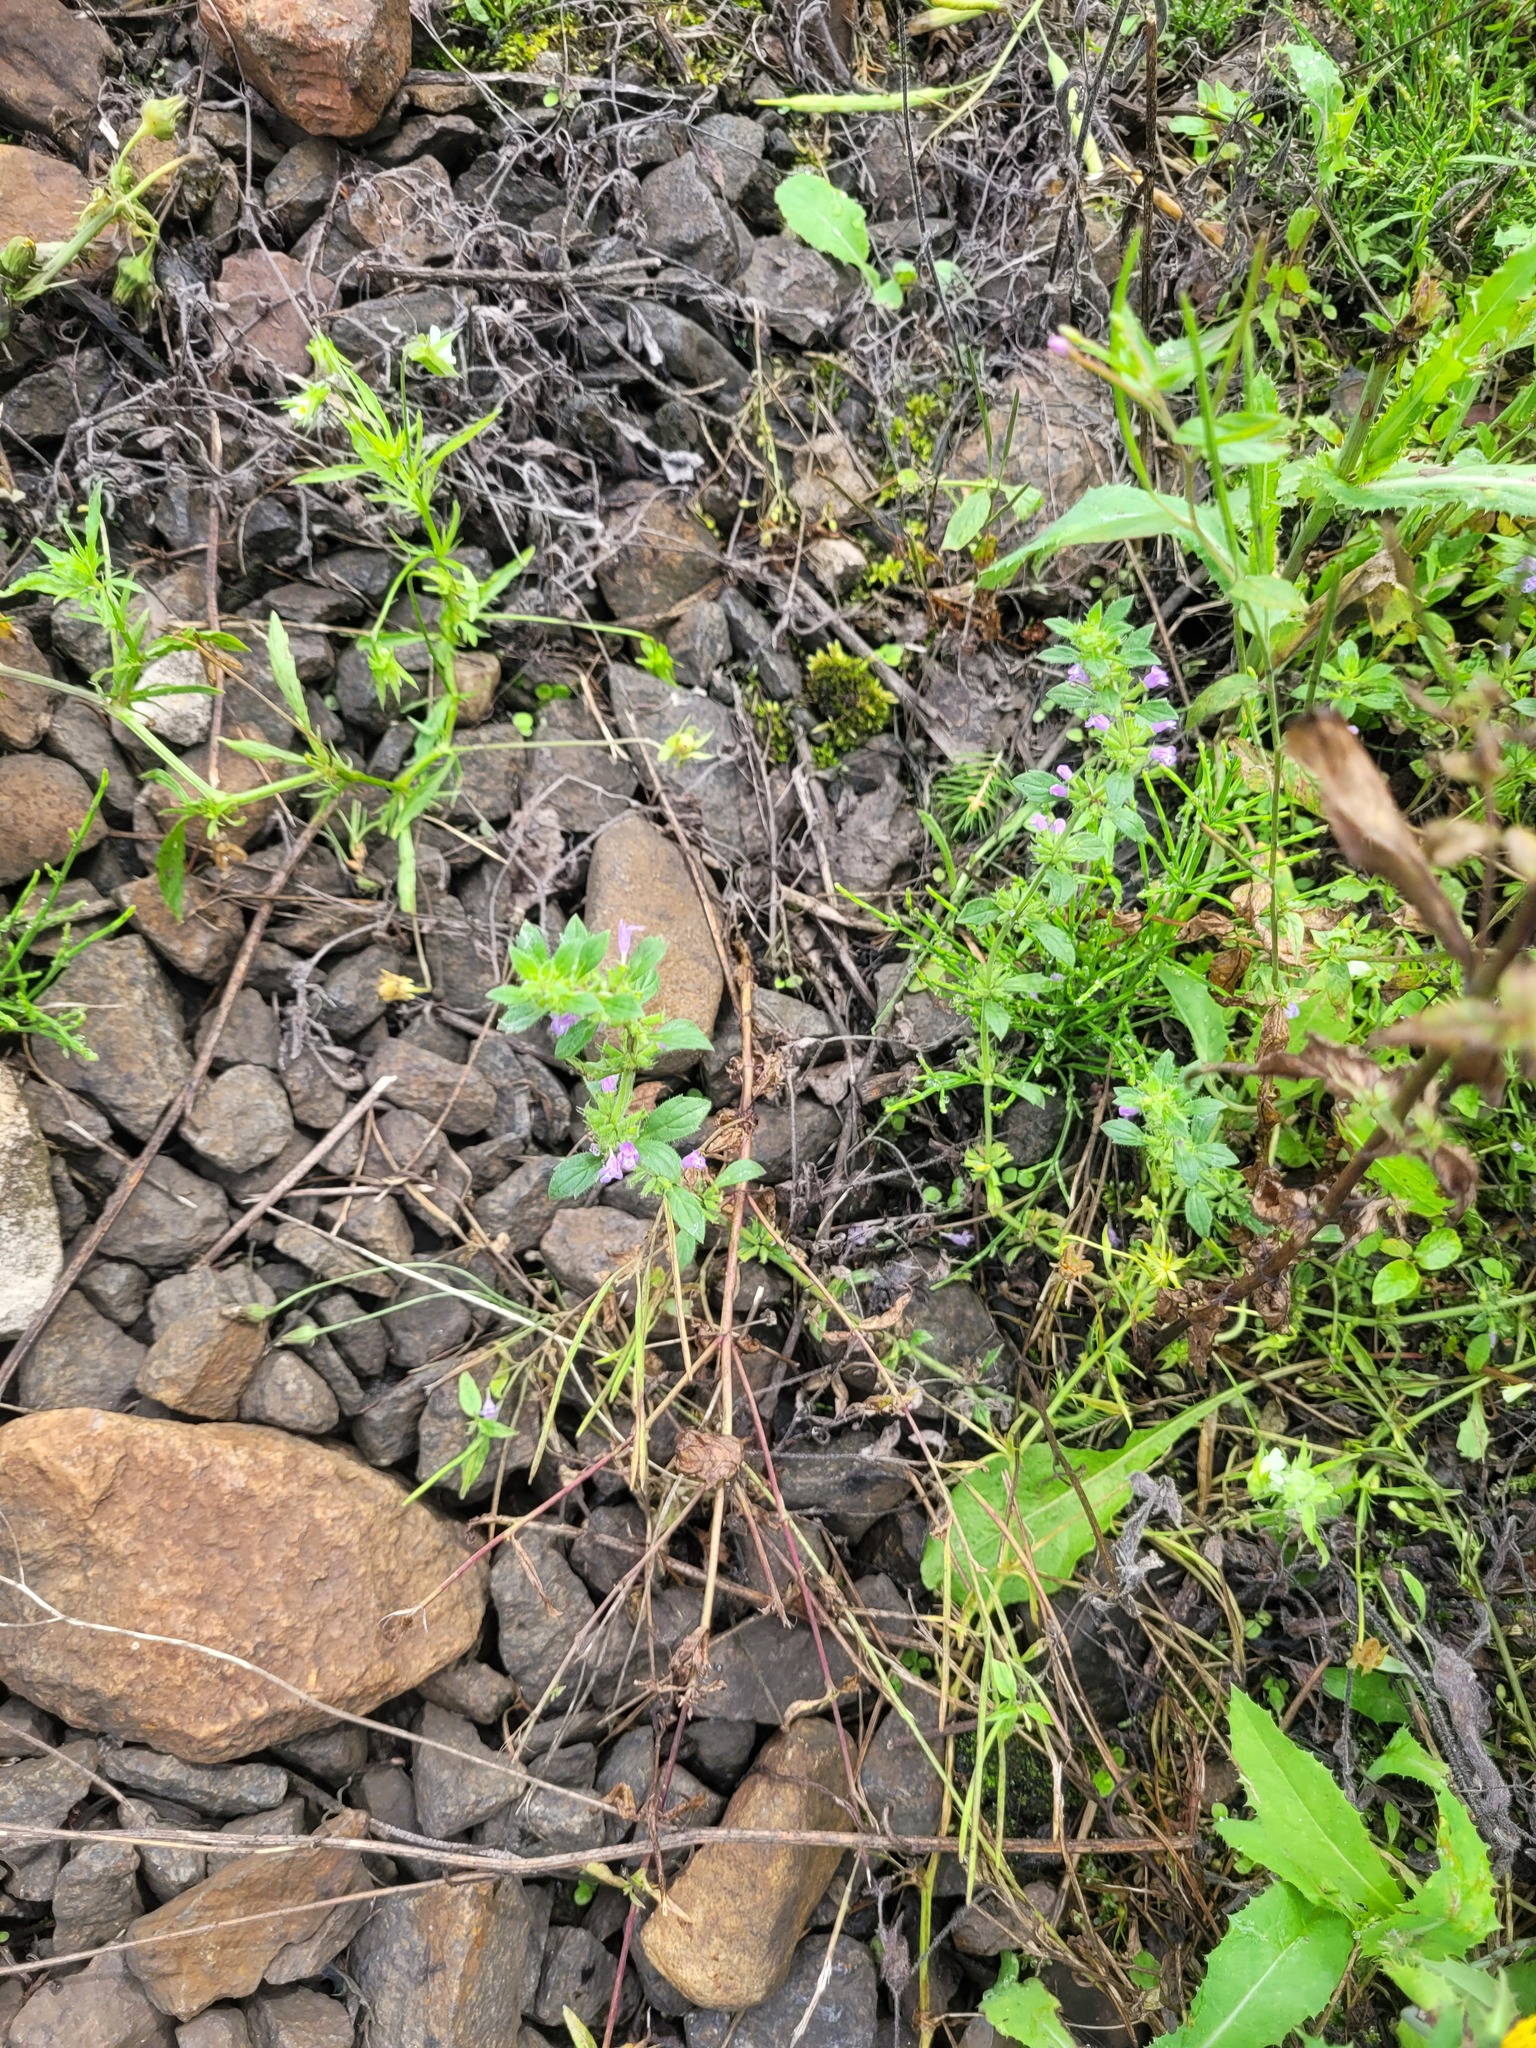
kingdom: Plantae
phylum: Tracheophyta
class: Magnoliopsida
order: Lamiales
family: Lamiaceae
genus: Clinopodium
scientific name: Clinopodium acinos
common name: Basil thyme
